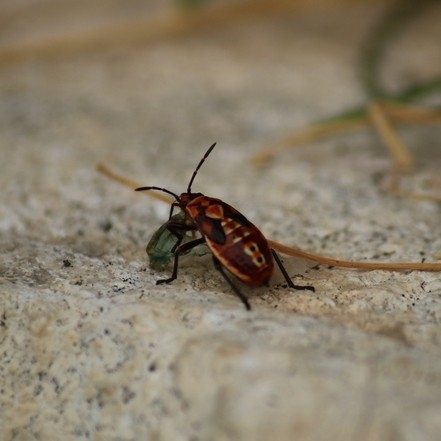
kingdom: Animalia
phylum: Arthropoda
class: Insecta
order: Hemiptera
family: Lygaeidae
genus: Spilostethus
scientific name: Spilostethus pandurus
